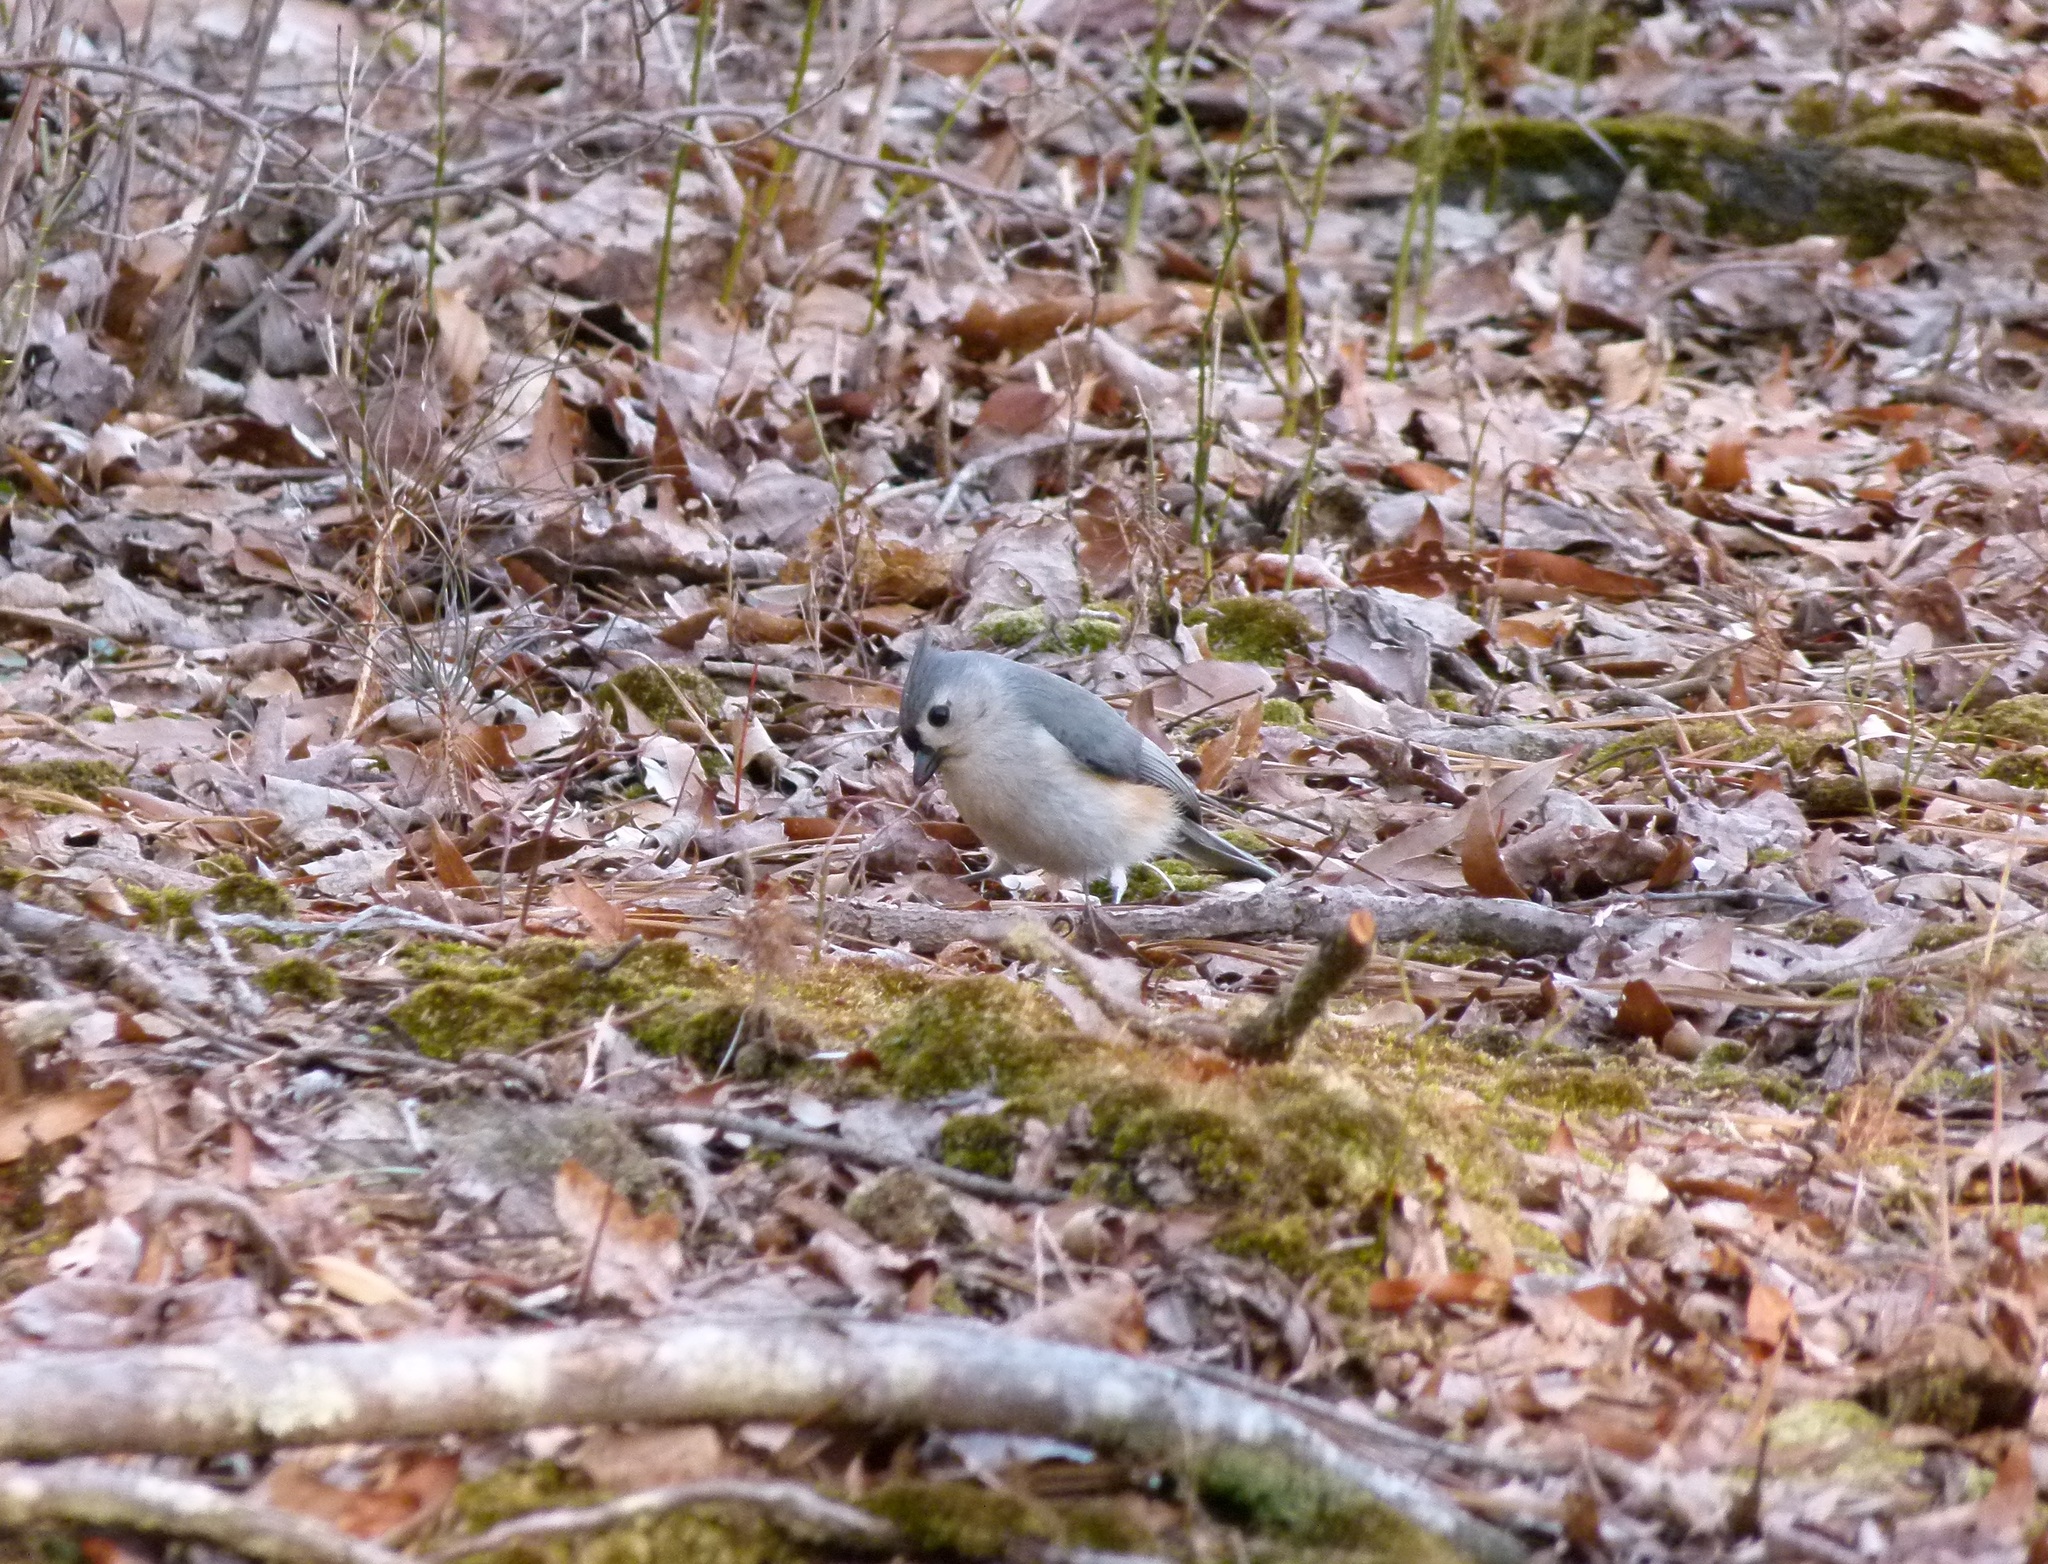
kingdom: Animalia
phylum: Chordata
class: Aves
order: Passeriformes
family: Paridae
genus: Baeolophus
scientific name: Baeolophus bicolor
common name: Tufted titmouse
